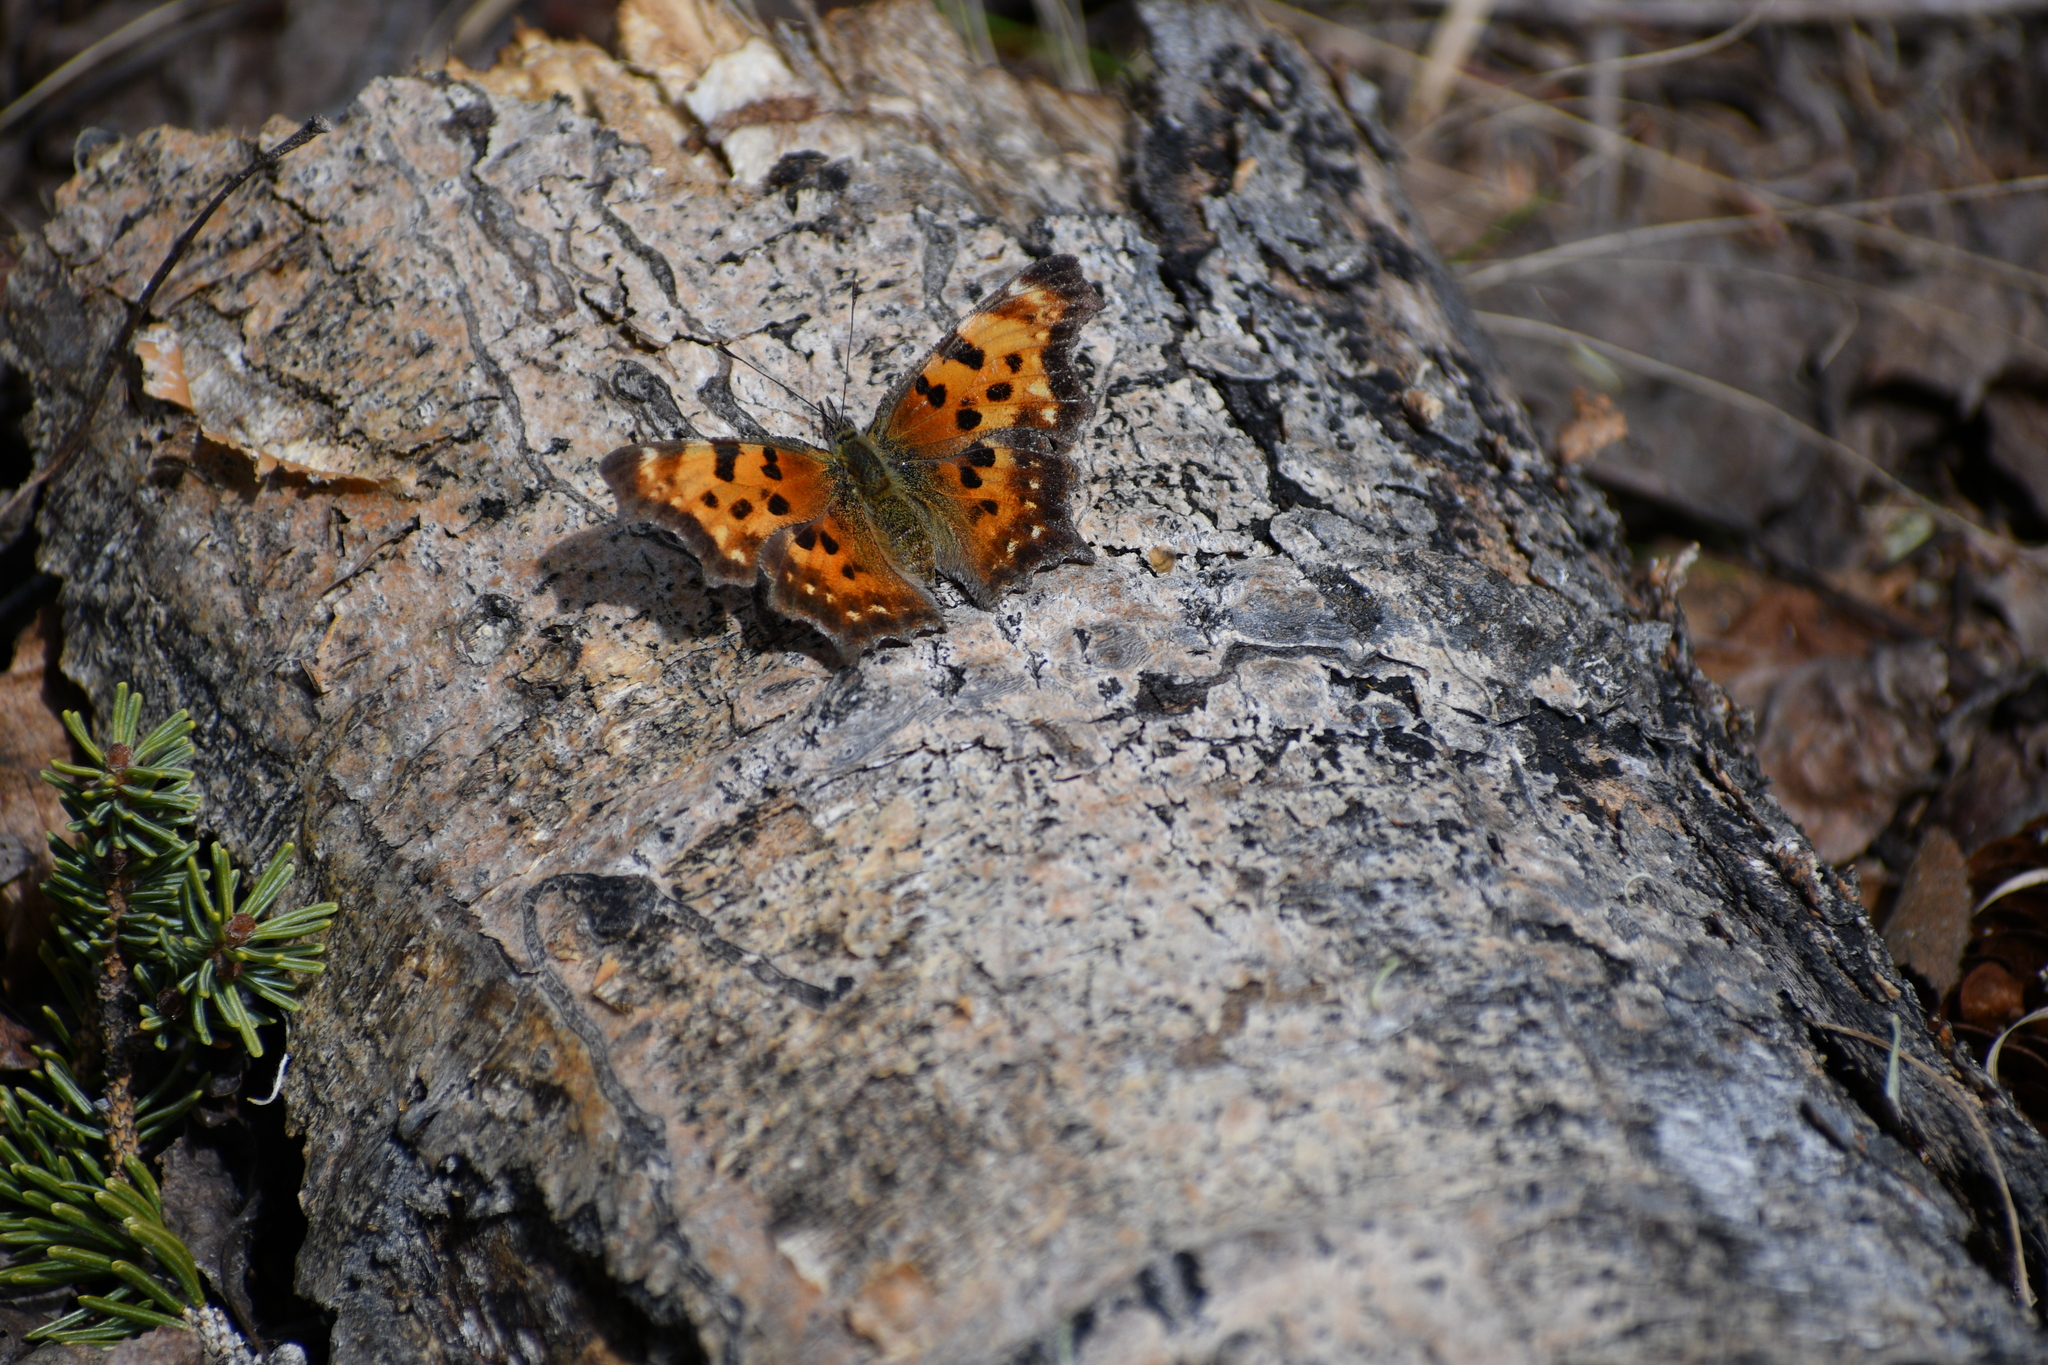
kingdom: Animalia
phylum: Arthropoda
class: Insecta
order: Lepidoptera
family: Nymphalidae
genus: Polygonia
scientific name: Polygonia faunus
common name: Green comma
